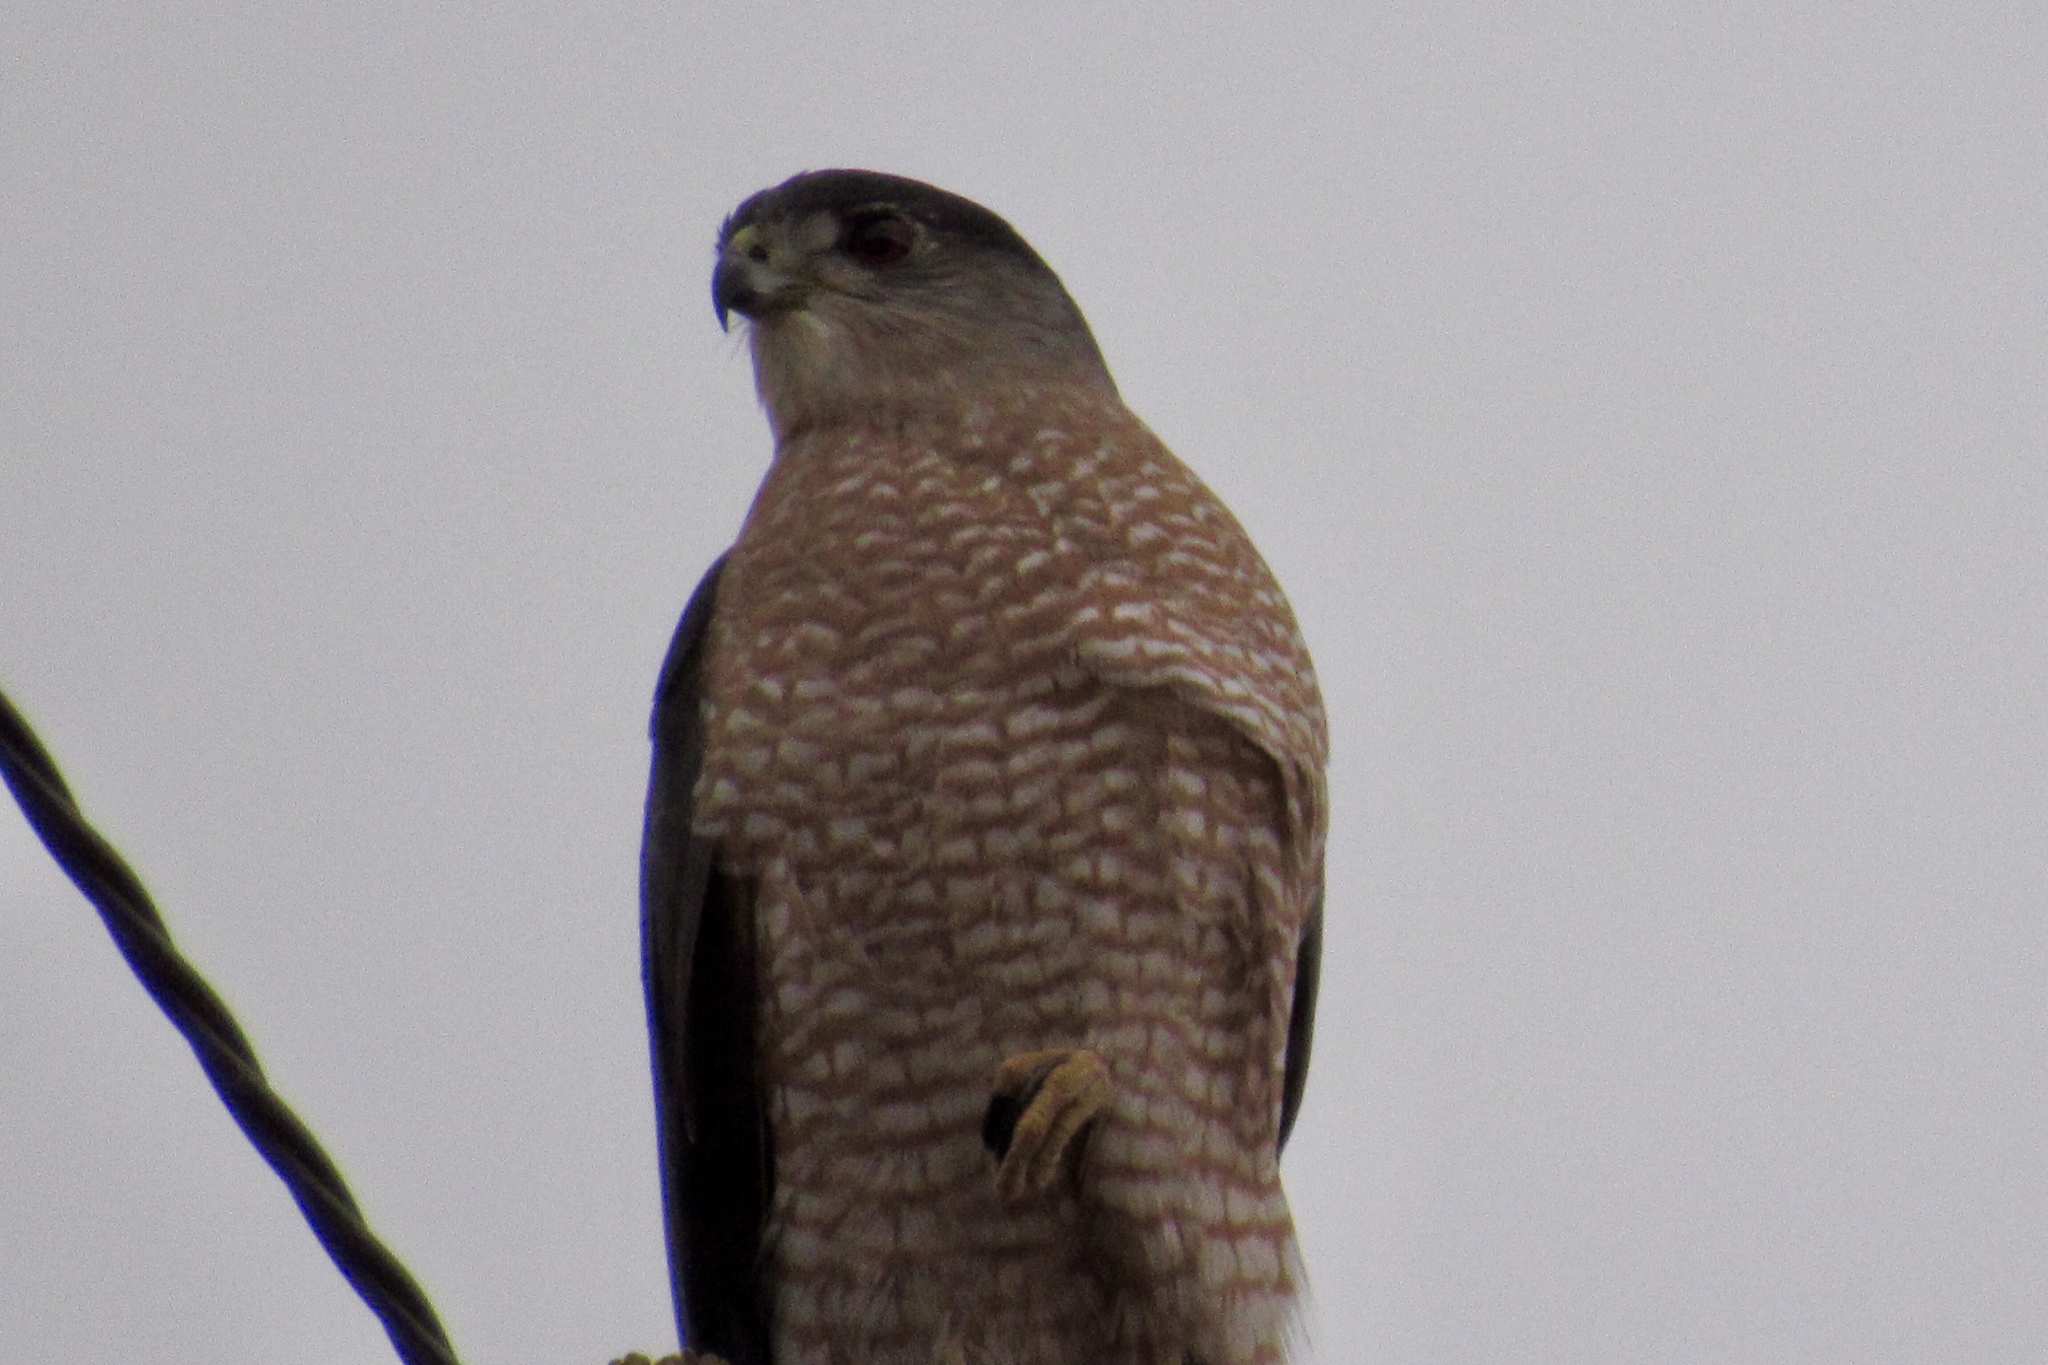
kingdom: Animalia
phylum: Chordata
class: Aves
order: Accipitriformes
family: Accipitridae
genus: Accipiter
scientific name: Accipiter cooperii
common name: Cooper's hawk
